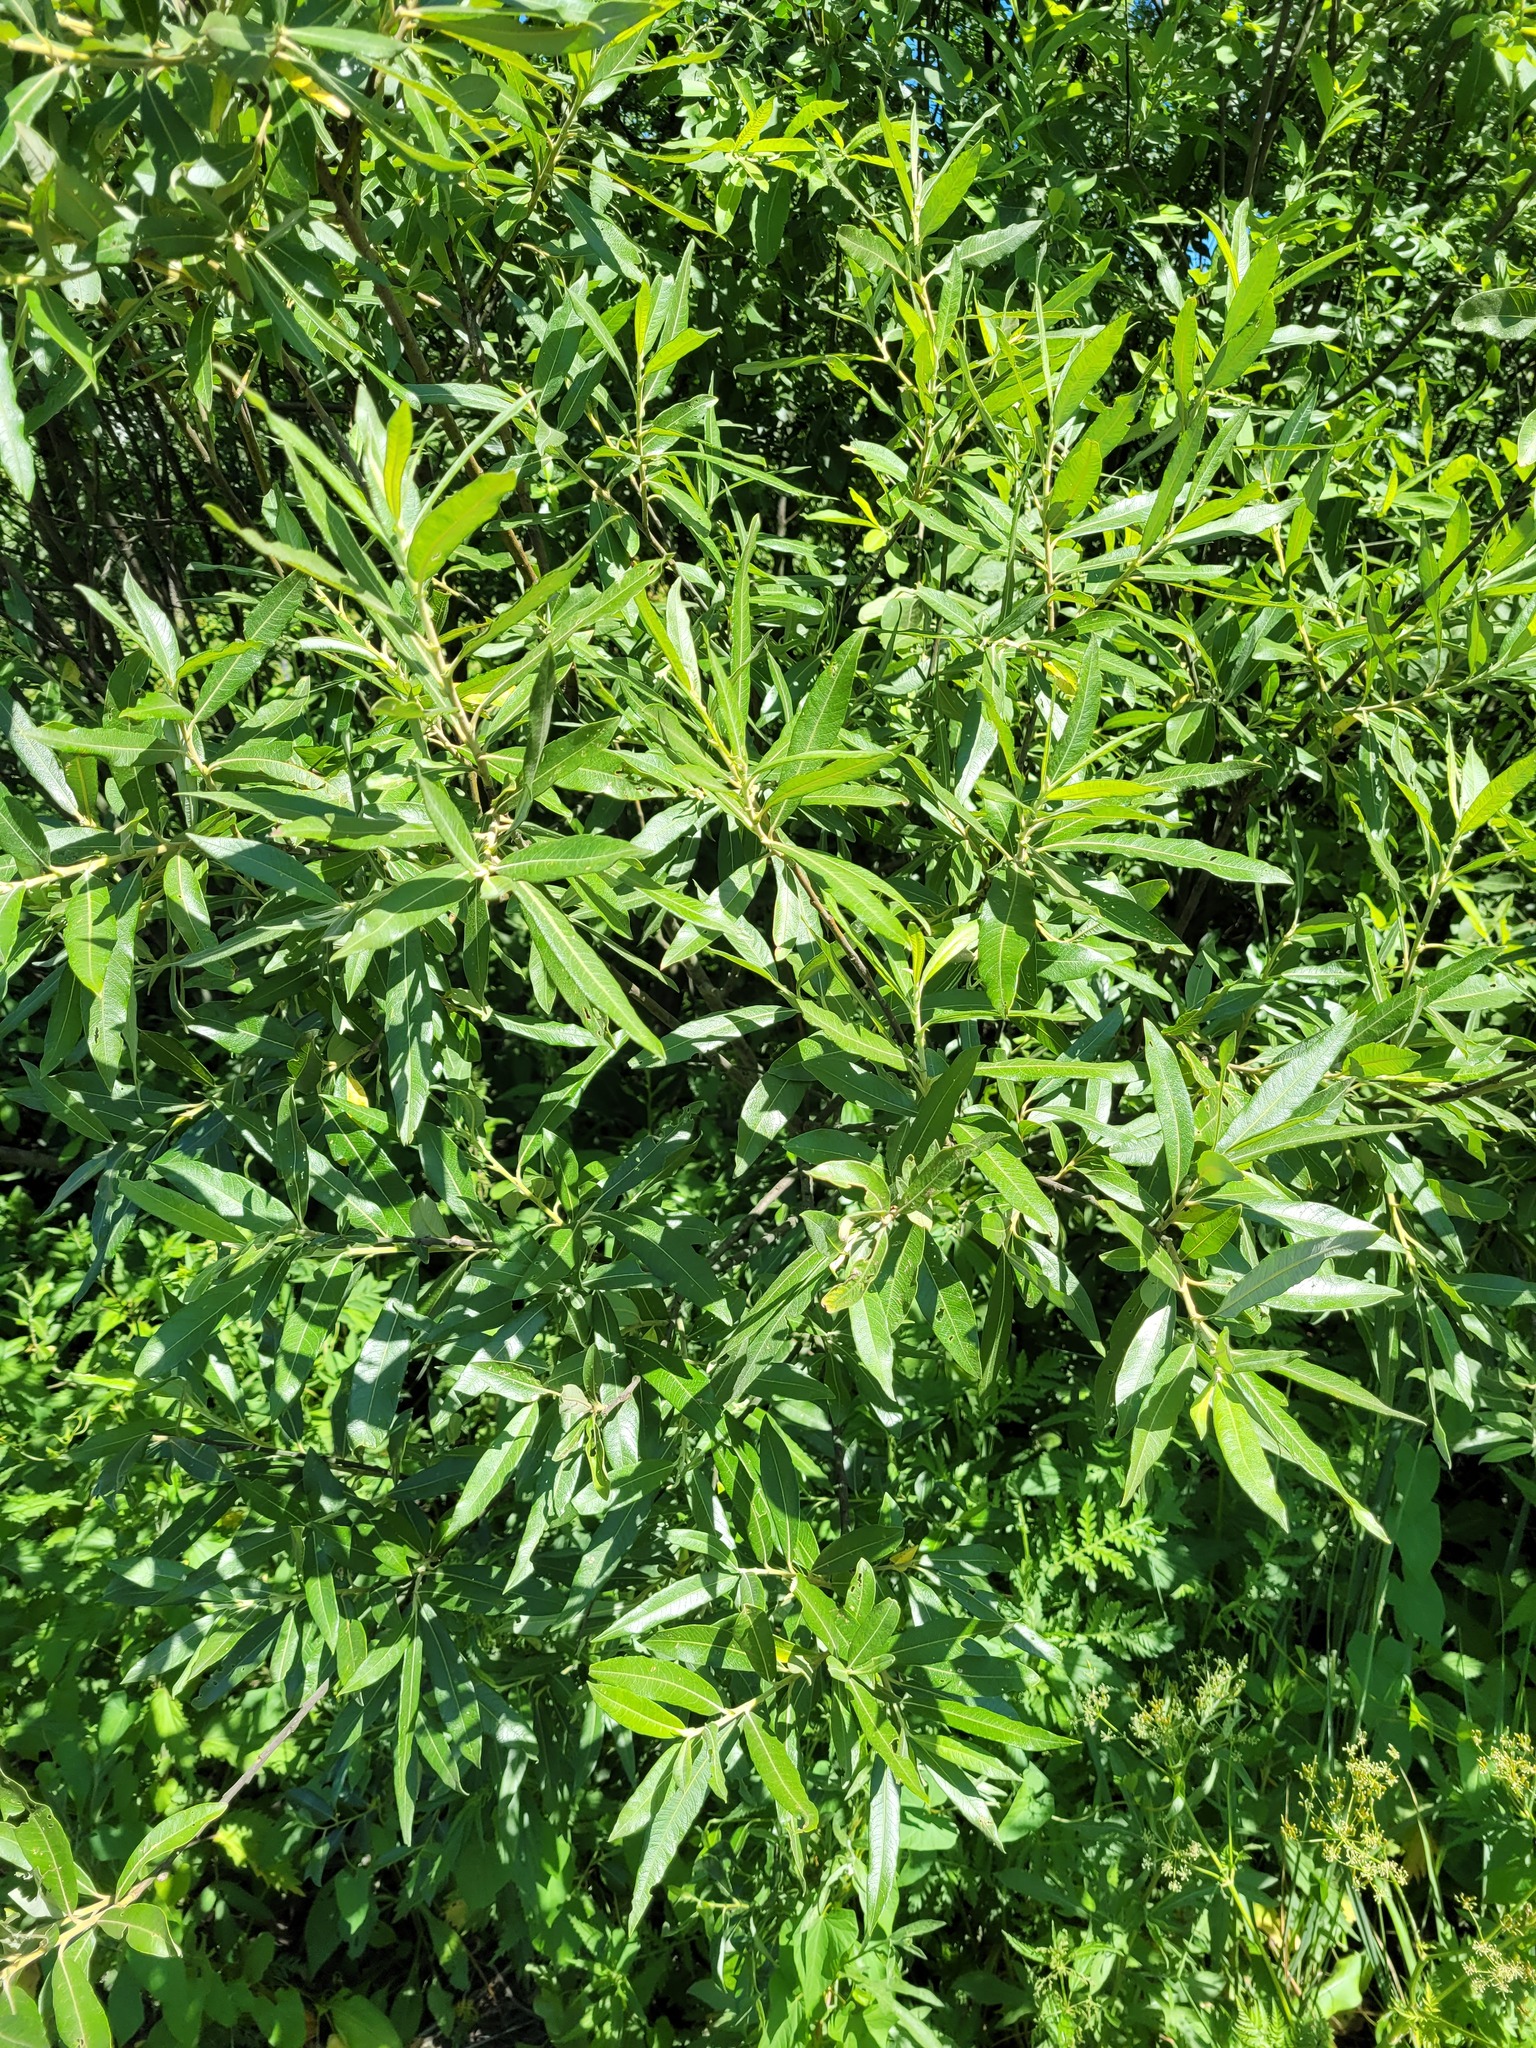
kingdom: Plantae
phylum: Tracheophyta
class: Magnoliopsida
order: Malpighiales
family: Salicaceae
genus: Salix
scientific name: Salix gmelinii
